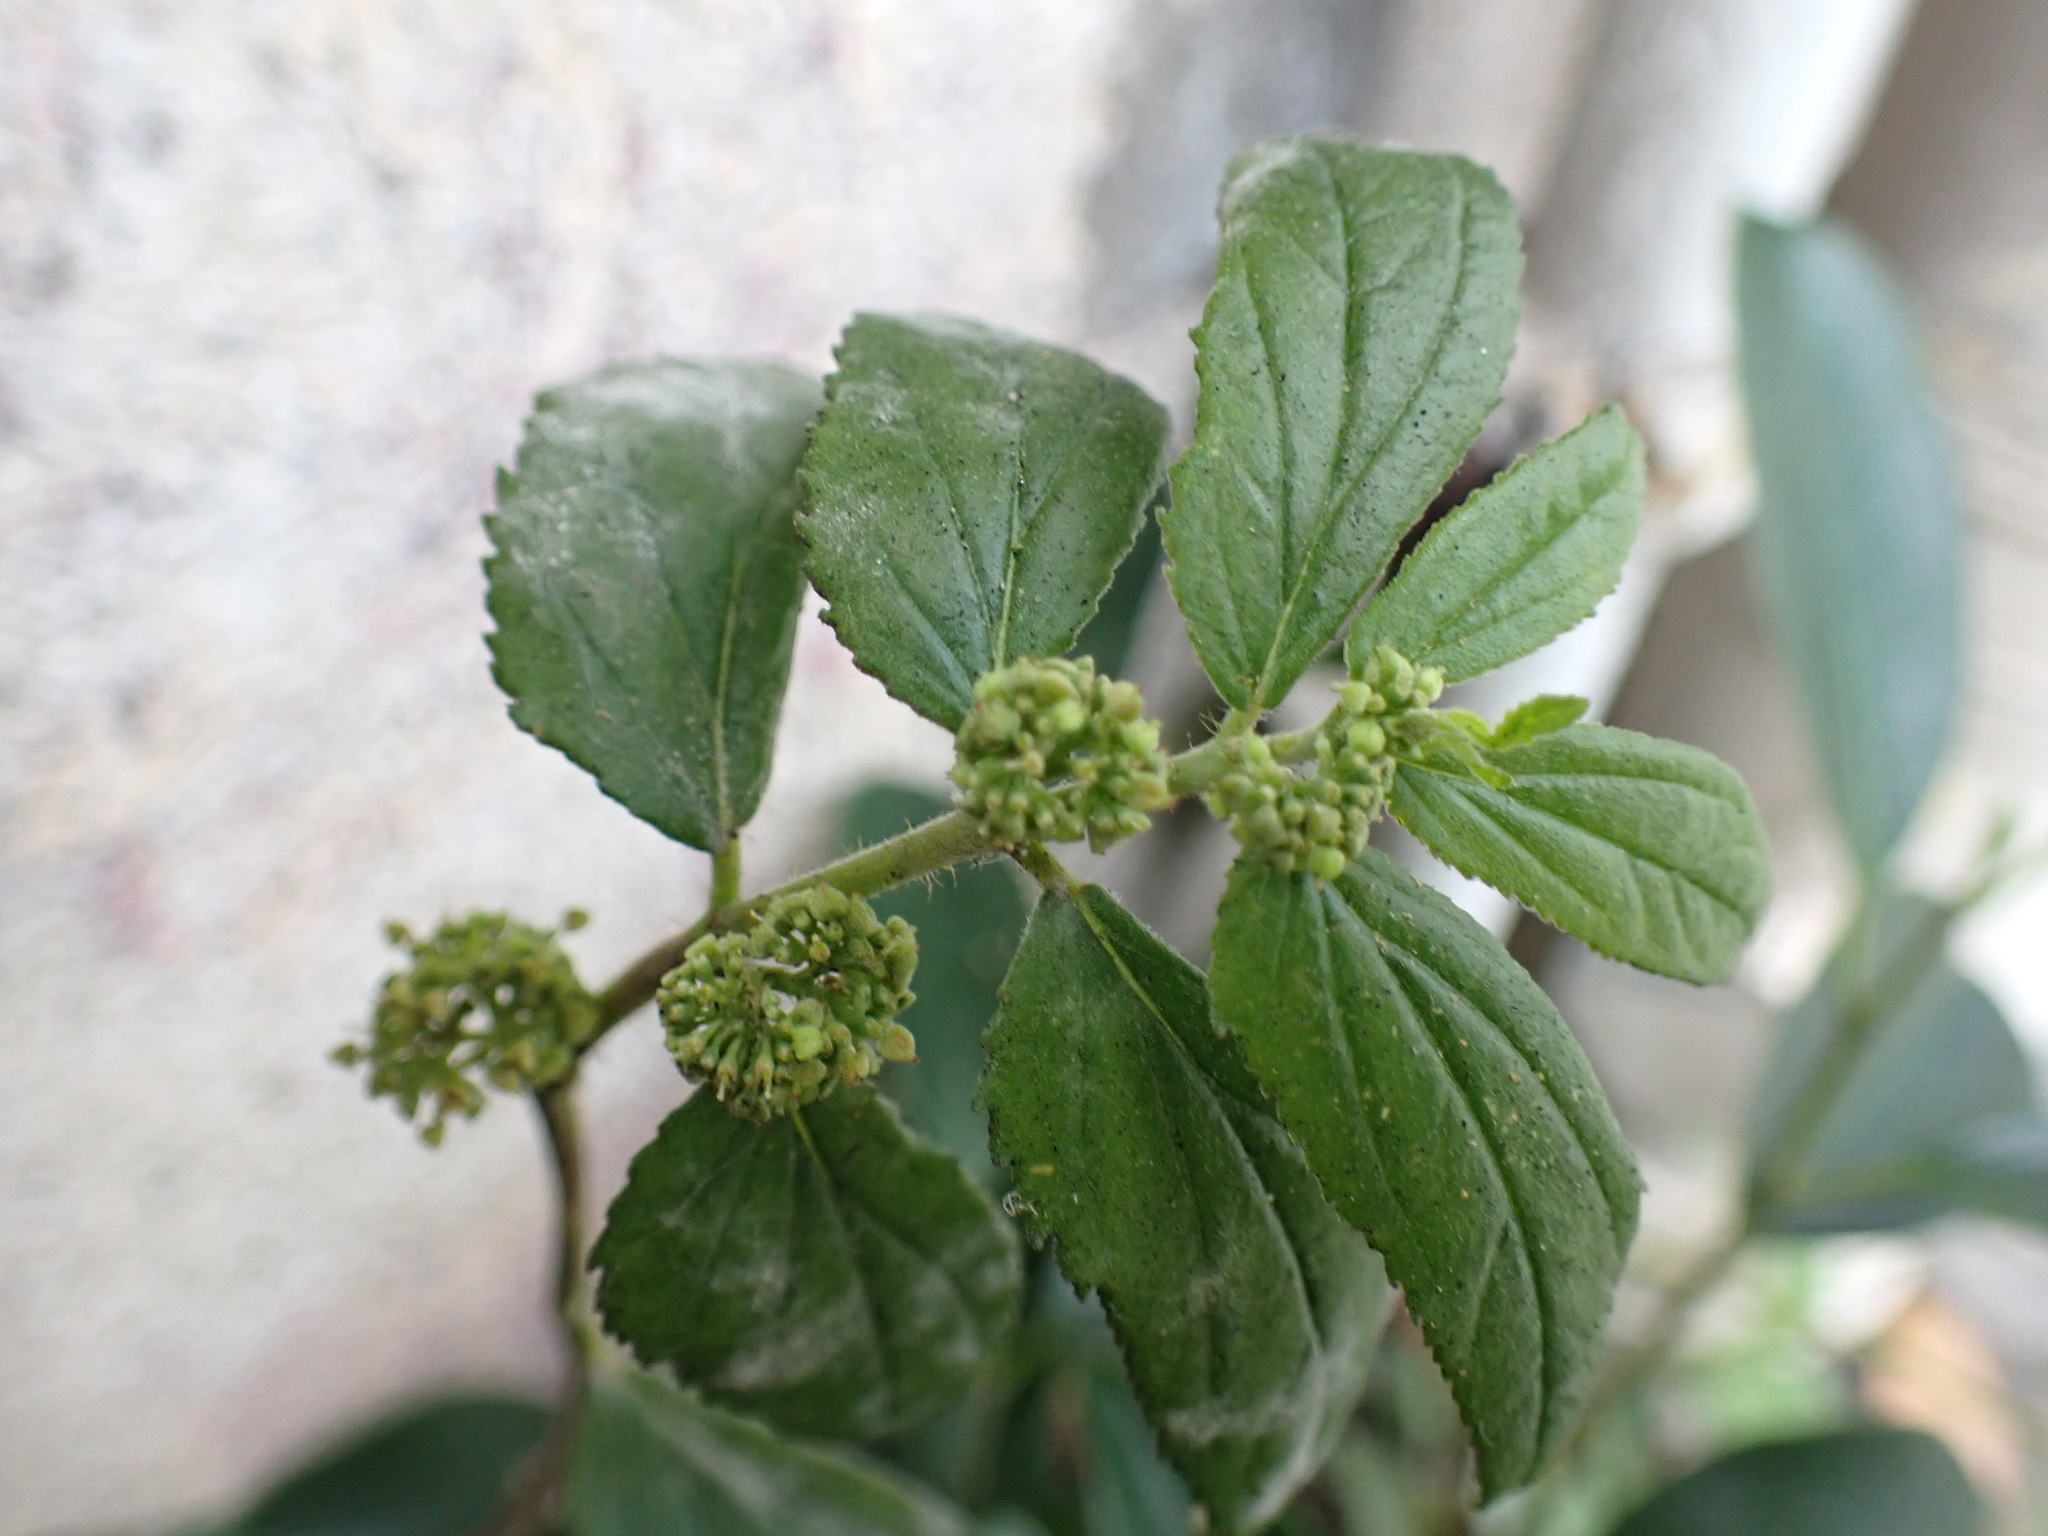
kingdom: Plantae
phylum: Tracheophyta
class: Magnoliopsida
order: Malpighiales
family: Euphorbiaceae
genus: Euphorbia
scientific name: Euphorbia hirta
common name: Pillpod sandmat
